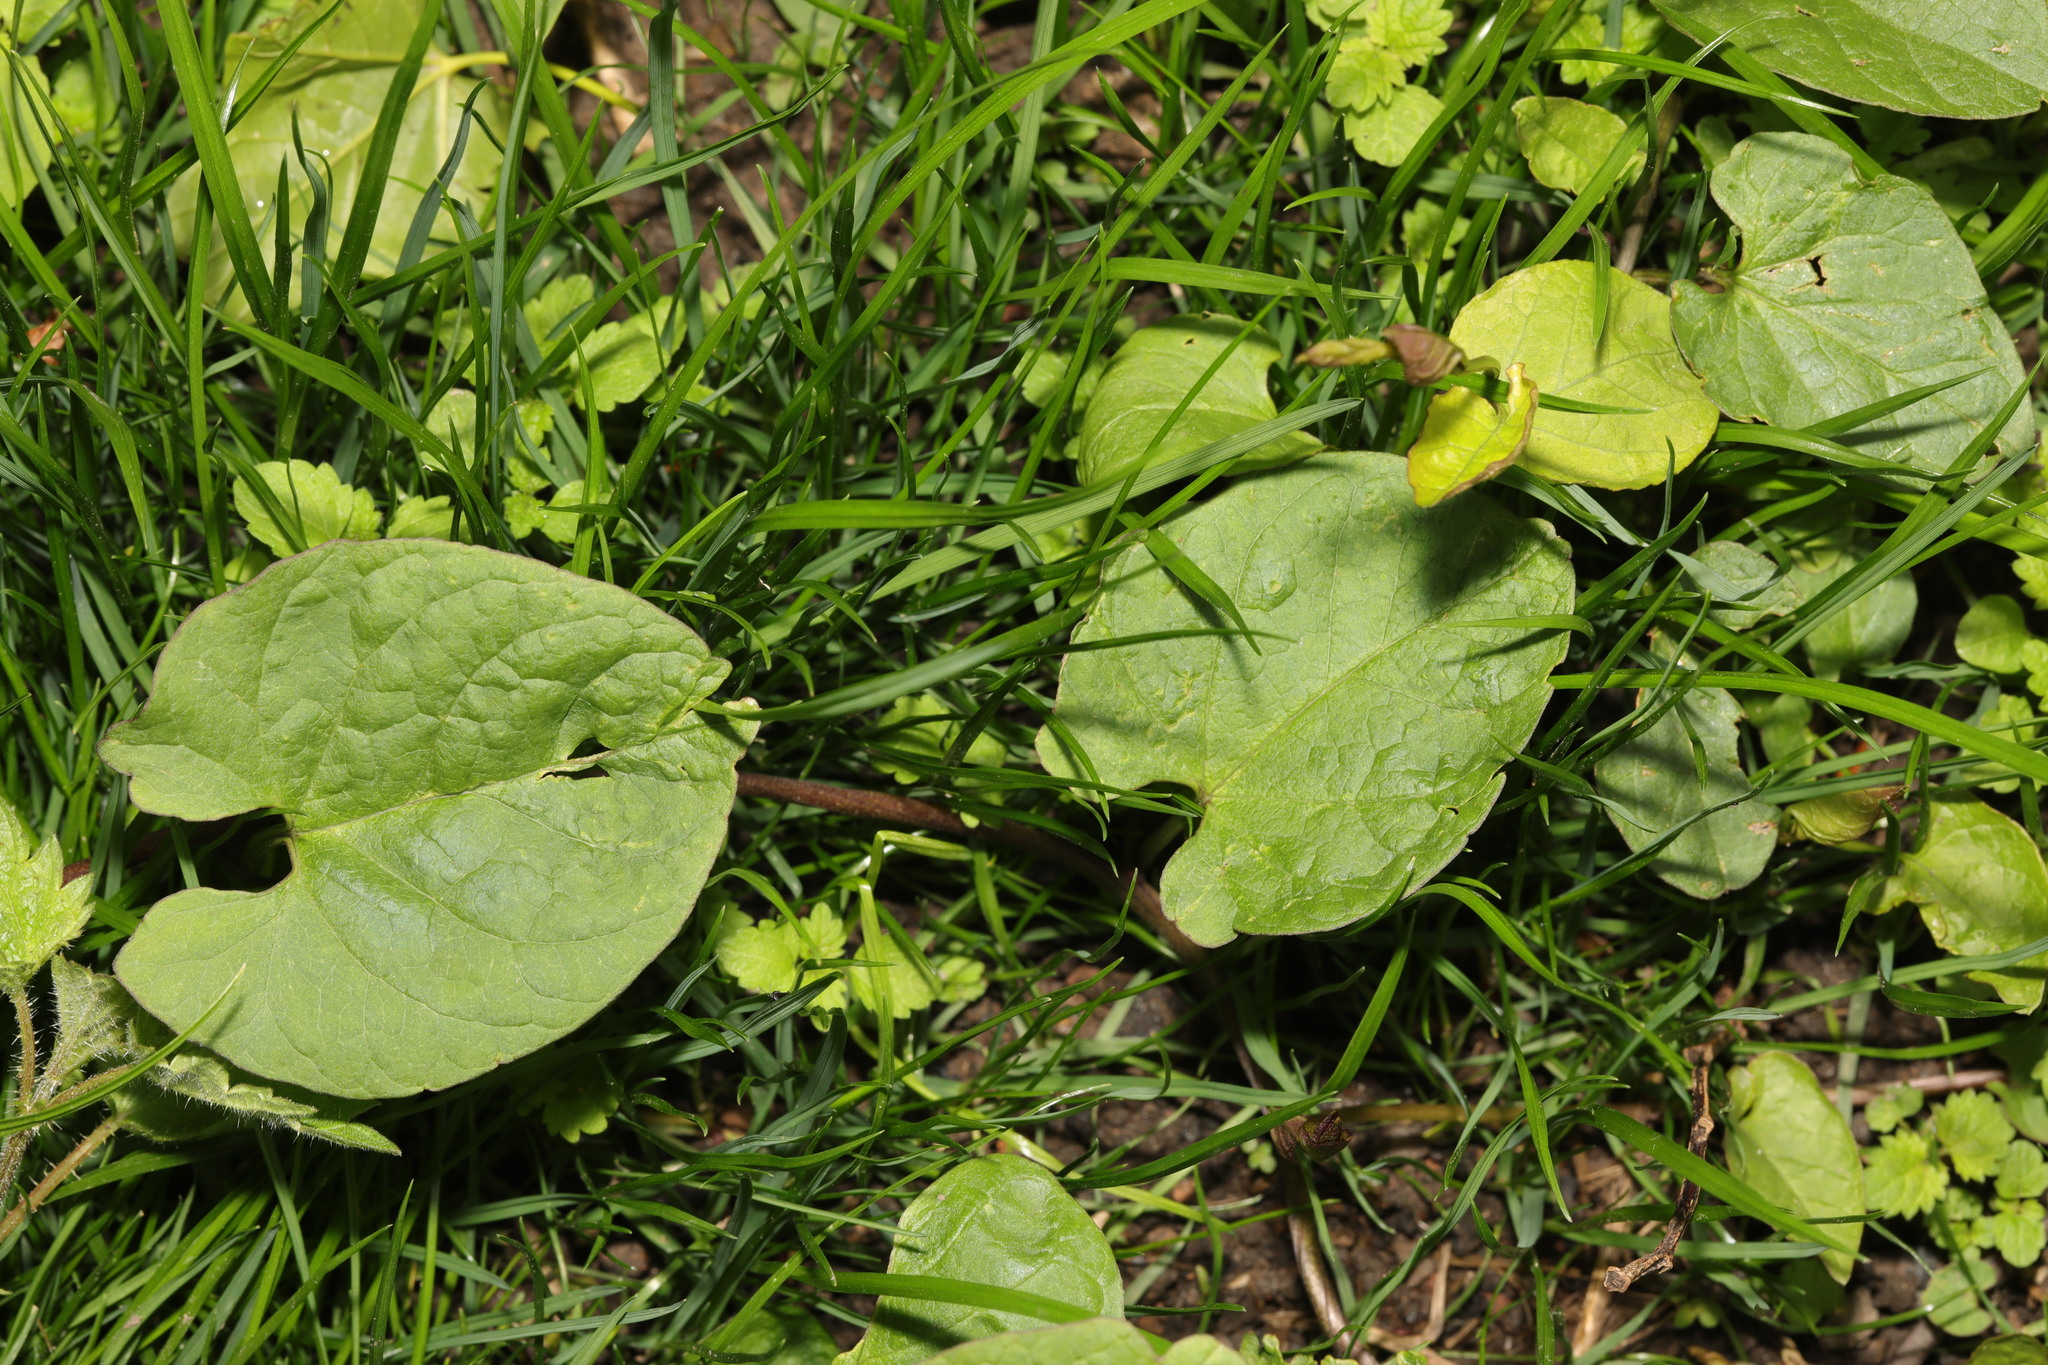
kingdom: Plantae
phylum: Tracheophyta
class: Magnoliopsida
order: Caryophyllales
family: Polygonaceae
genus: Fallopia
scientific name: Fallopia convolvulus
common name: Black bindweed
